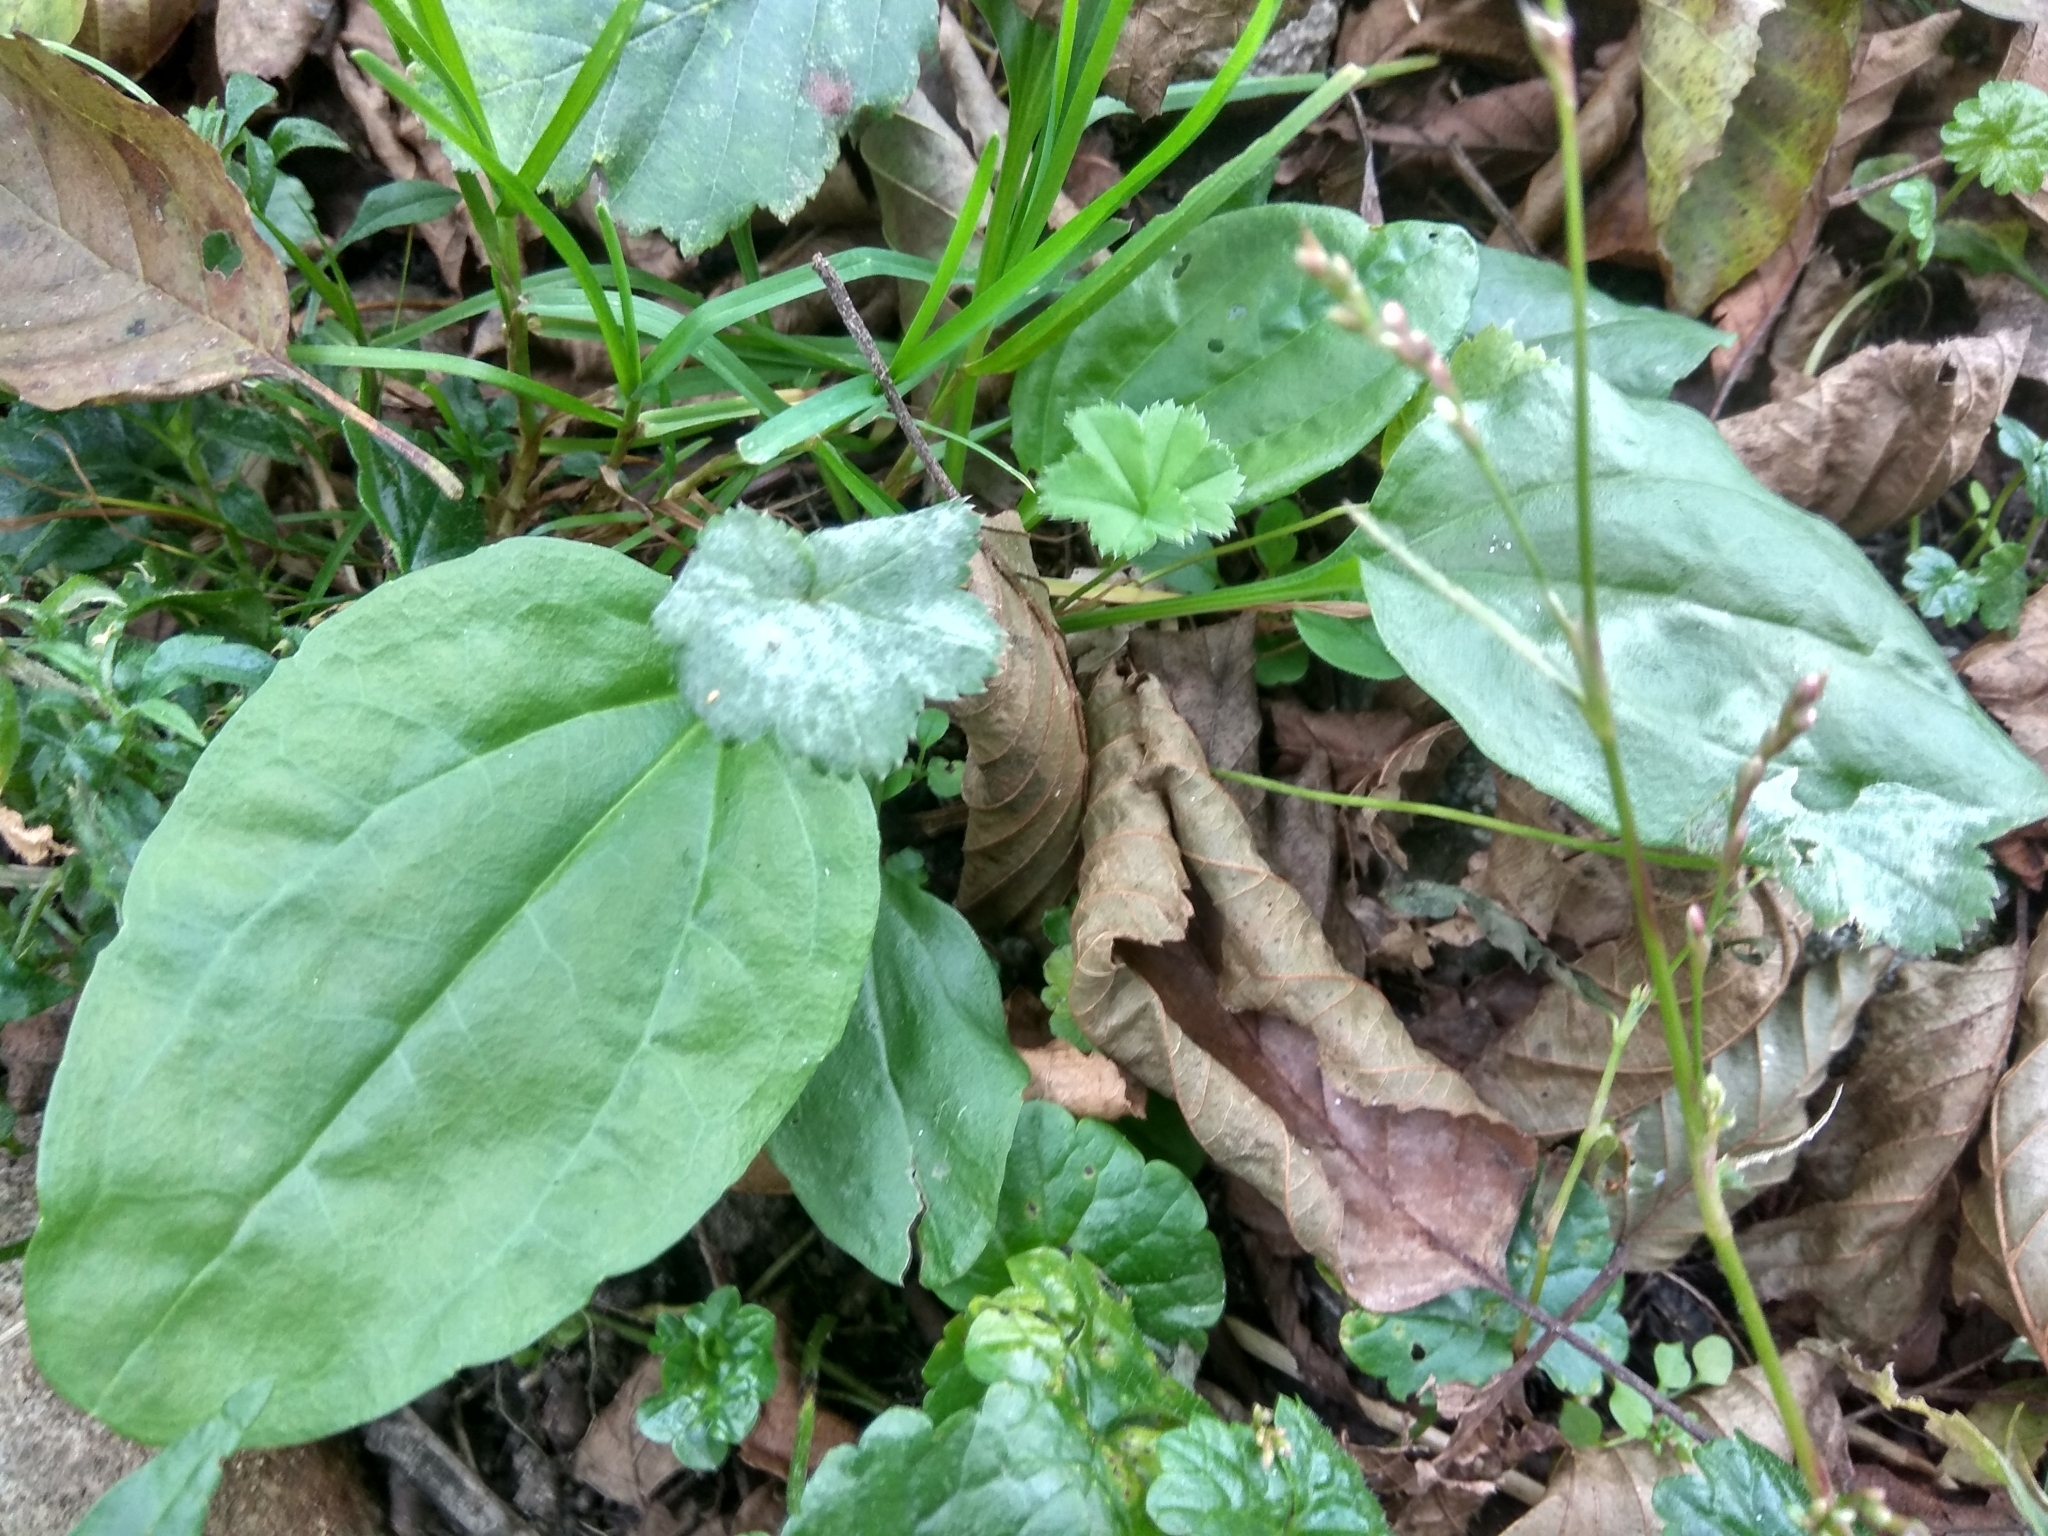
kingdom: Plantae
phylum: Tracheophyta
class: Magnoliopsida
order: Lamiales
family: Plantaginaceae
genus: Plantago
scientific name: Plantago major
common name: Common plantain
